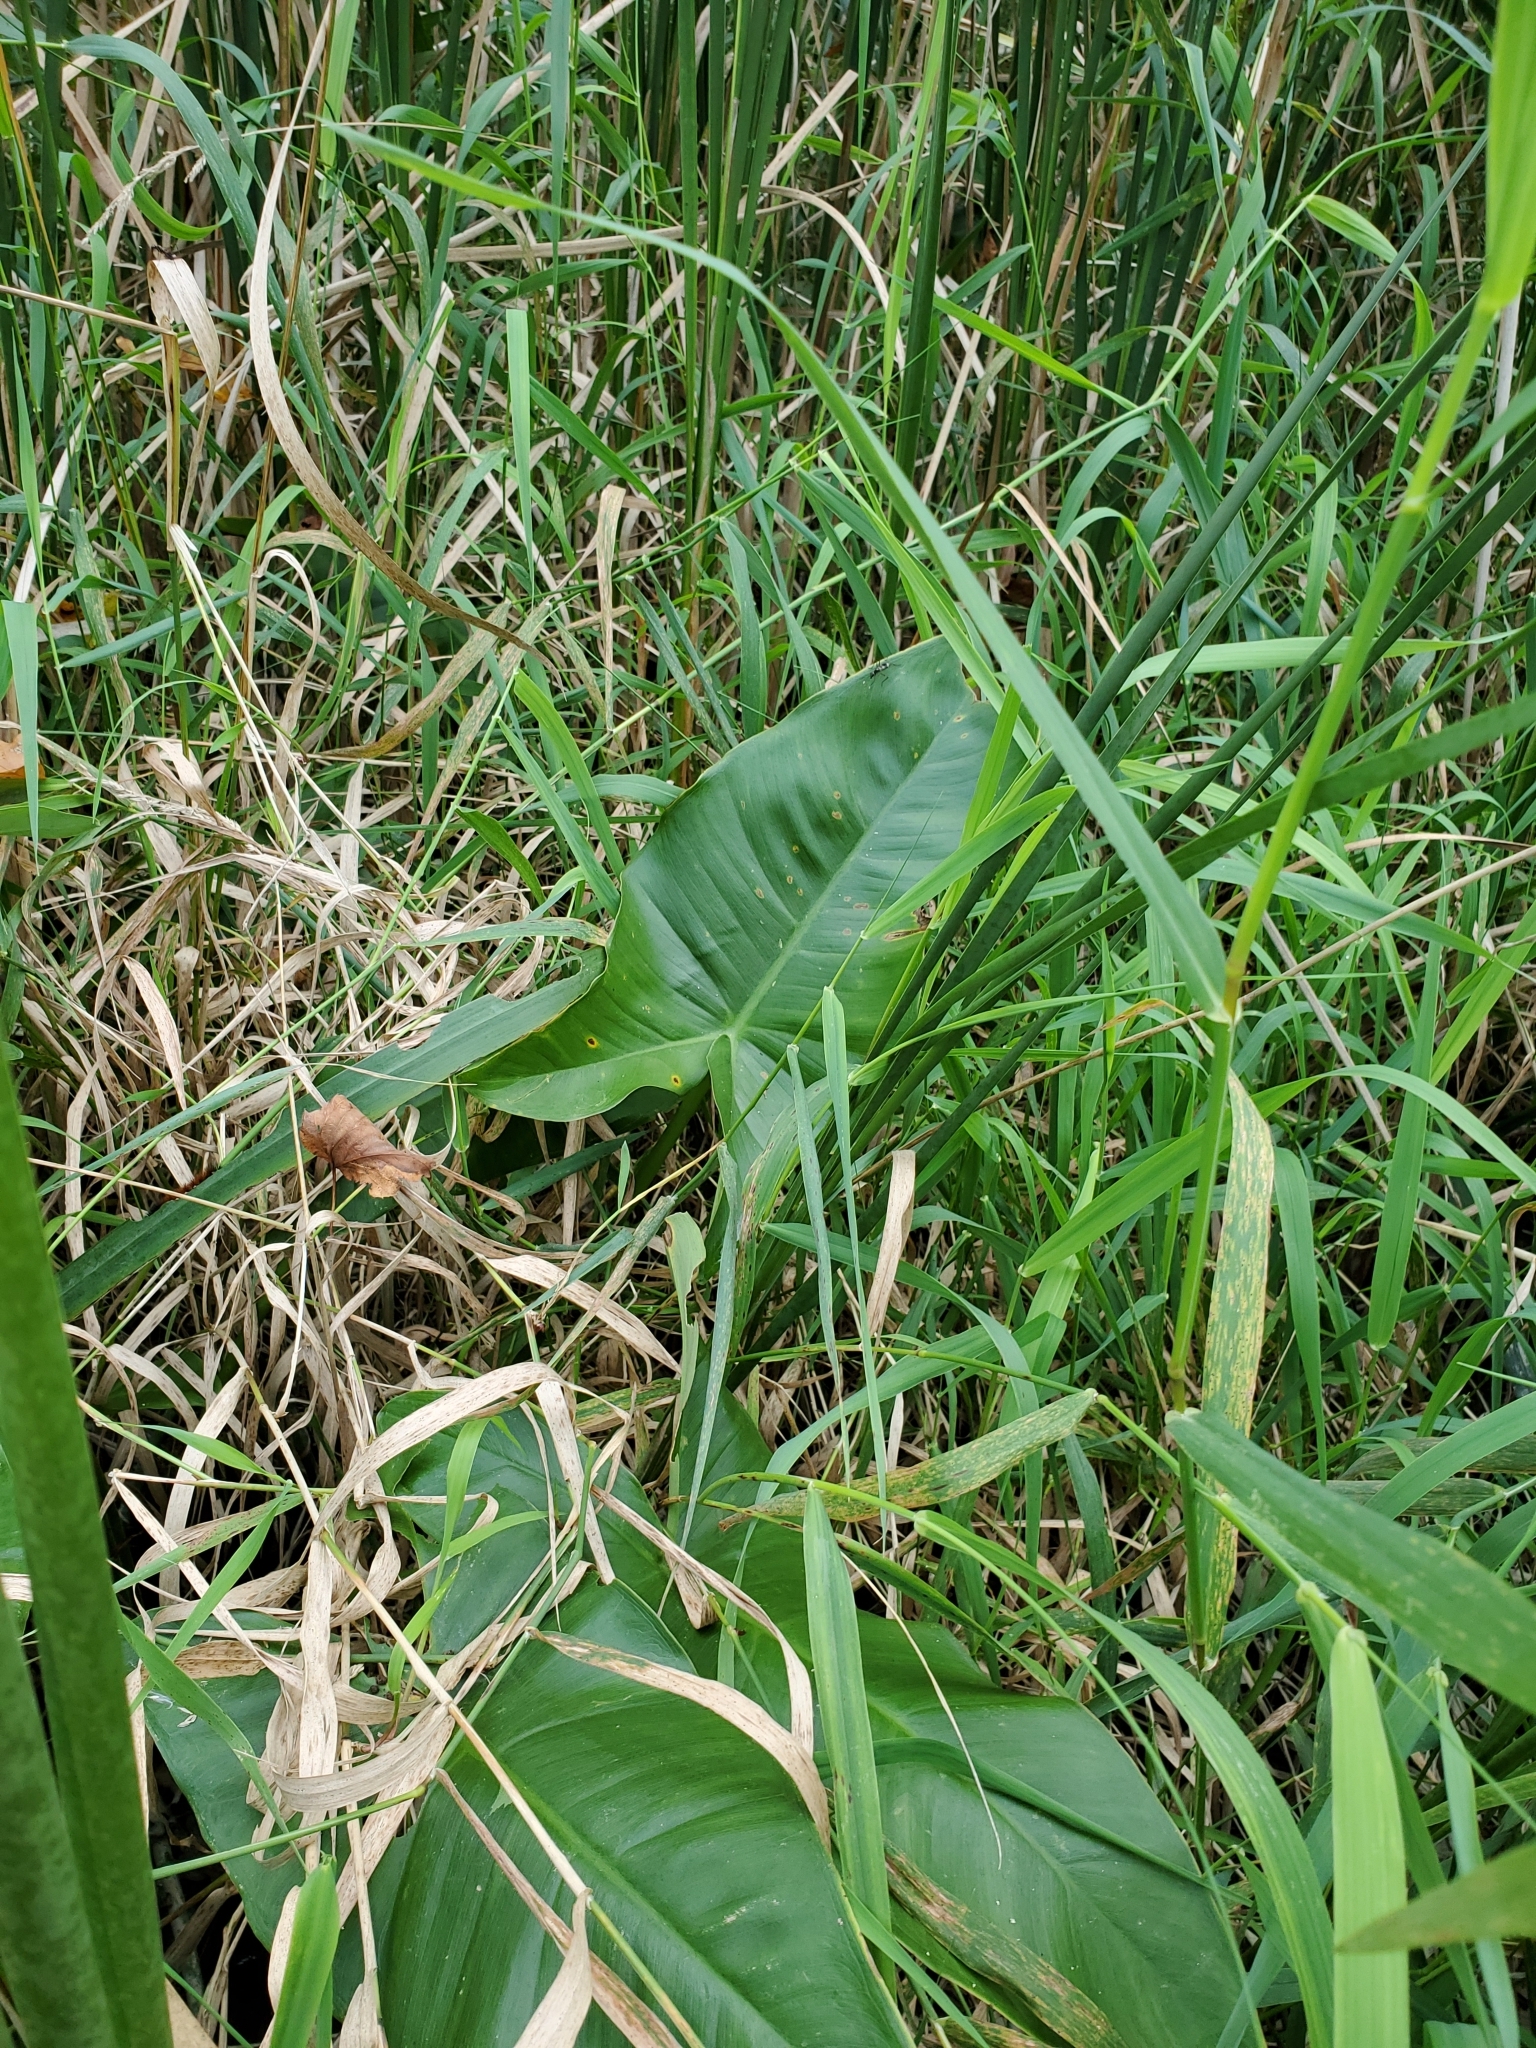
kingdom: Plantae
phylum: Tracheophyta
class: Liliopsida
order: Alismatales
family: Araceae
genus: Peltandra
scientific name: Peltandra virginica
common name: Arrow arum
